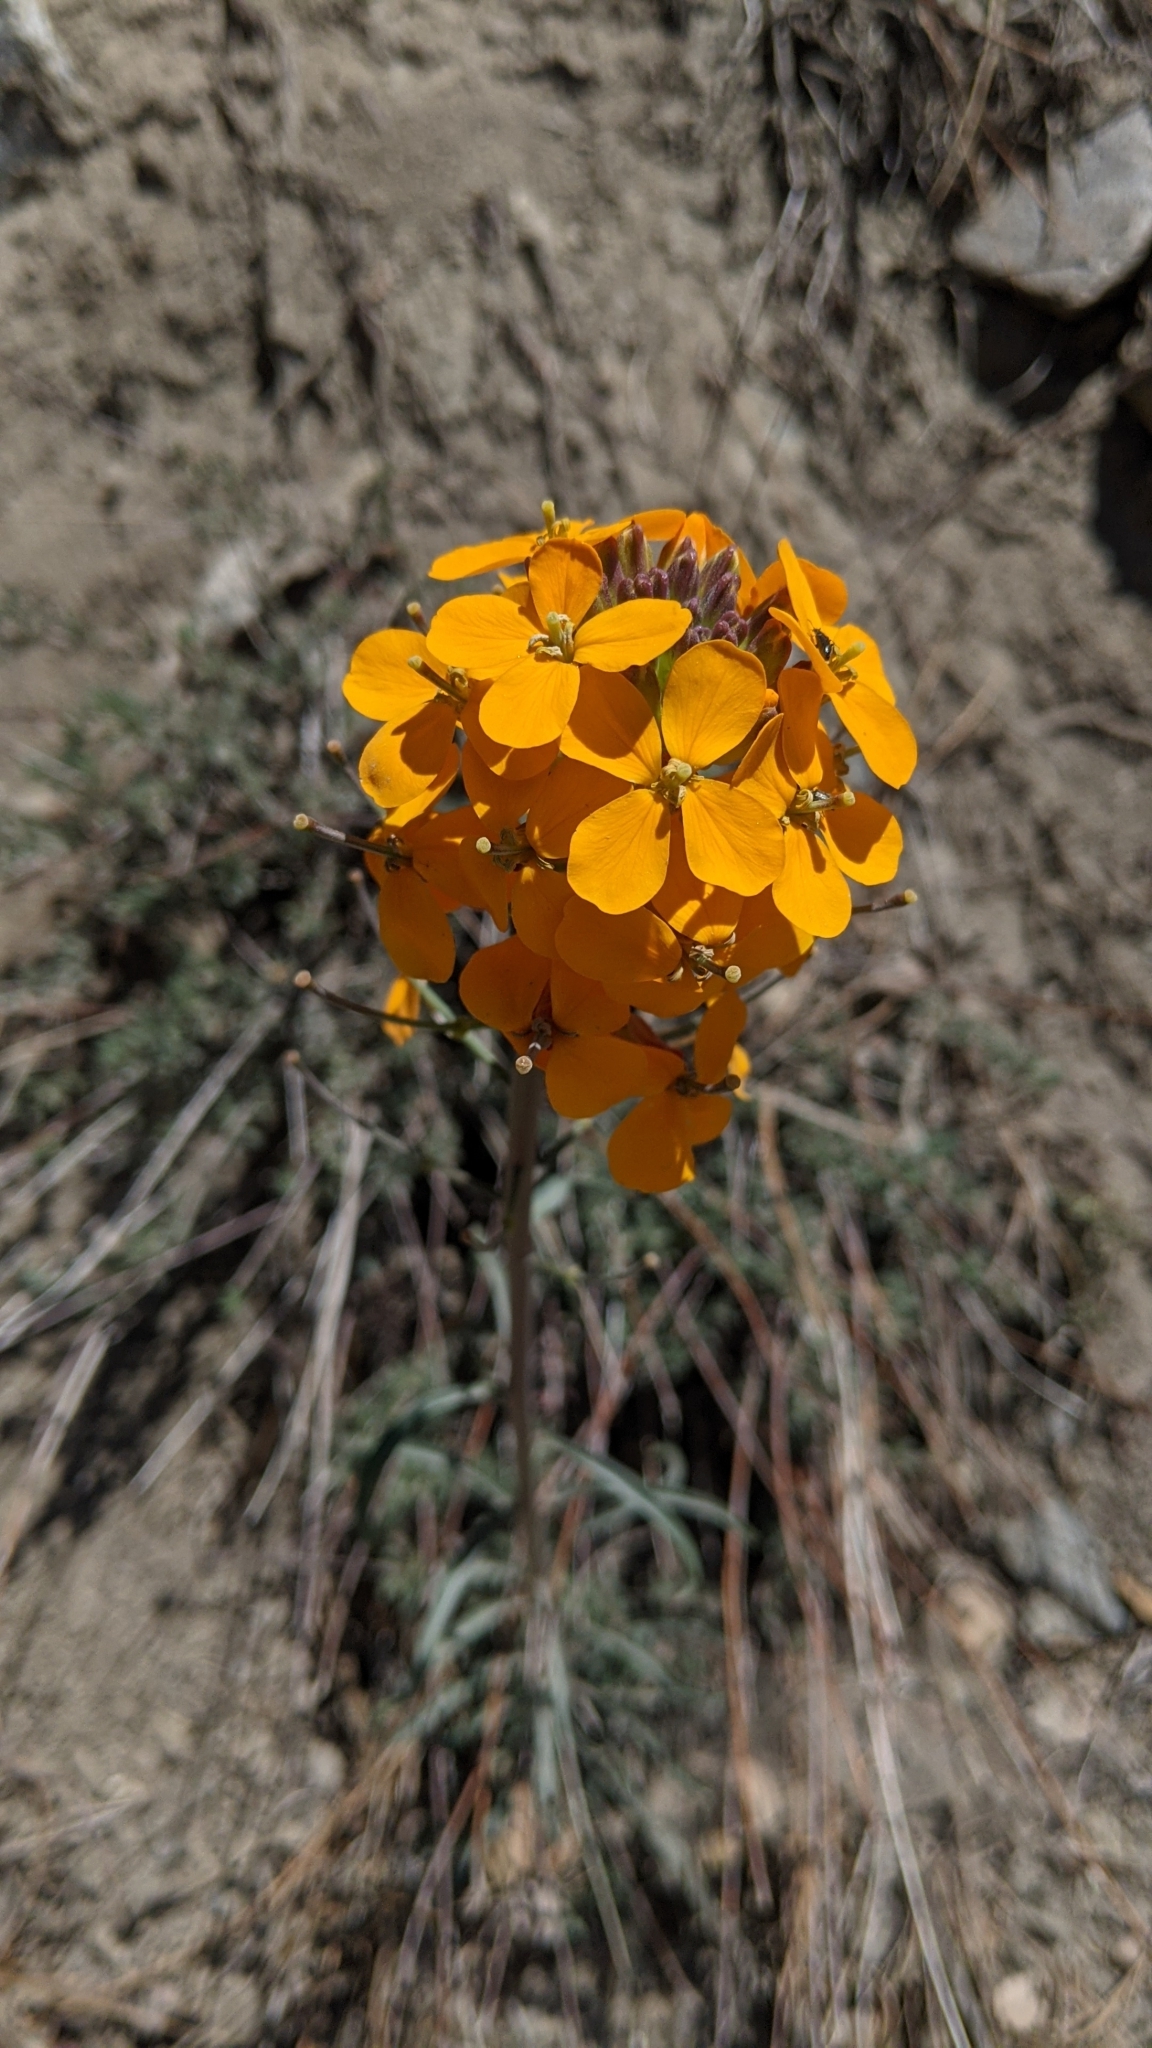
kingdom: Plantae
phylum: Tracheophyta
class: Magnoliopsida
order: Brassicales
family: Brassicaceae
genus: Erysimum
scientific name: Erysimum capitatum
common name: Western wallflower
